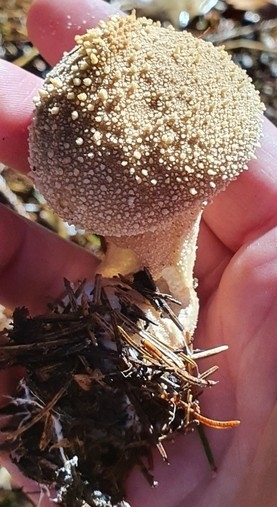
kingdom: Fungi
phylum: Basidiomycota
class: Agaricomycetes
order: Agaricales
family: Lycoperdaceae
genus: Lycoperdon
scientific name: Lycoperdon perlatum
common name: Common puffball
